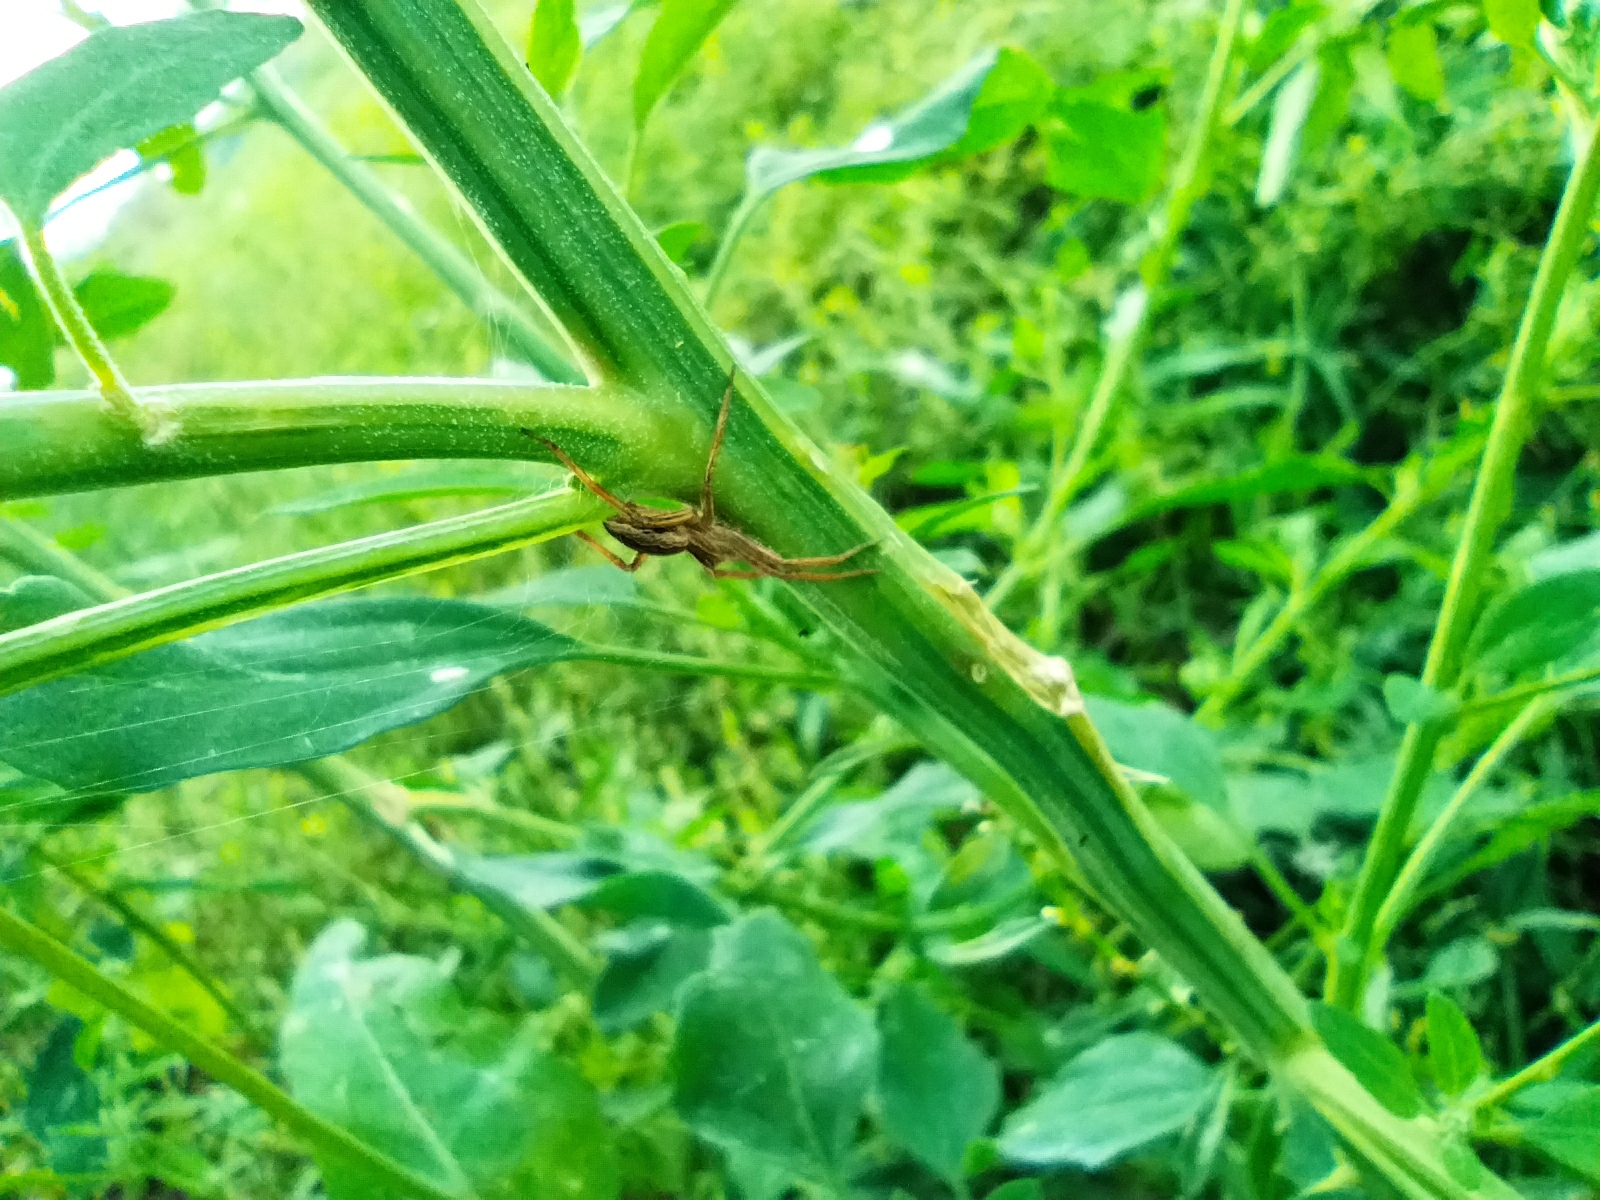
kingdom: Animalia
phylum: Arthropoda
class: Arachnida
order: Araneae
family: Pisauridae
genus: Pisaura
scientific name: Pisaura mirabilis
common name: Tent spider
